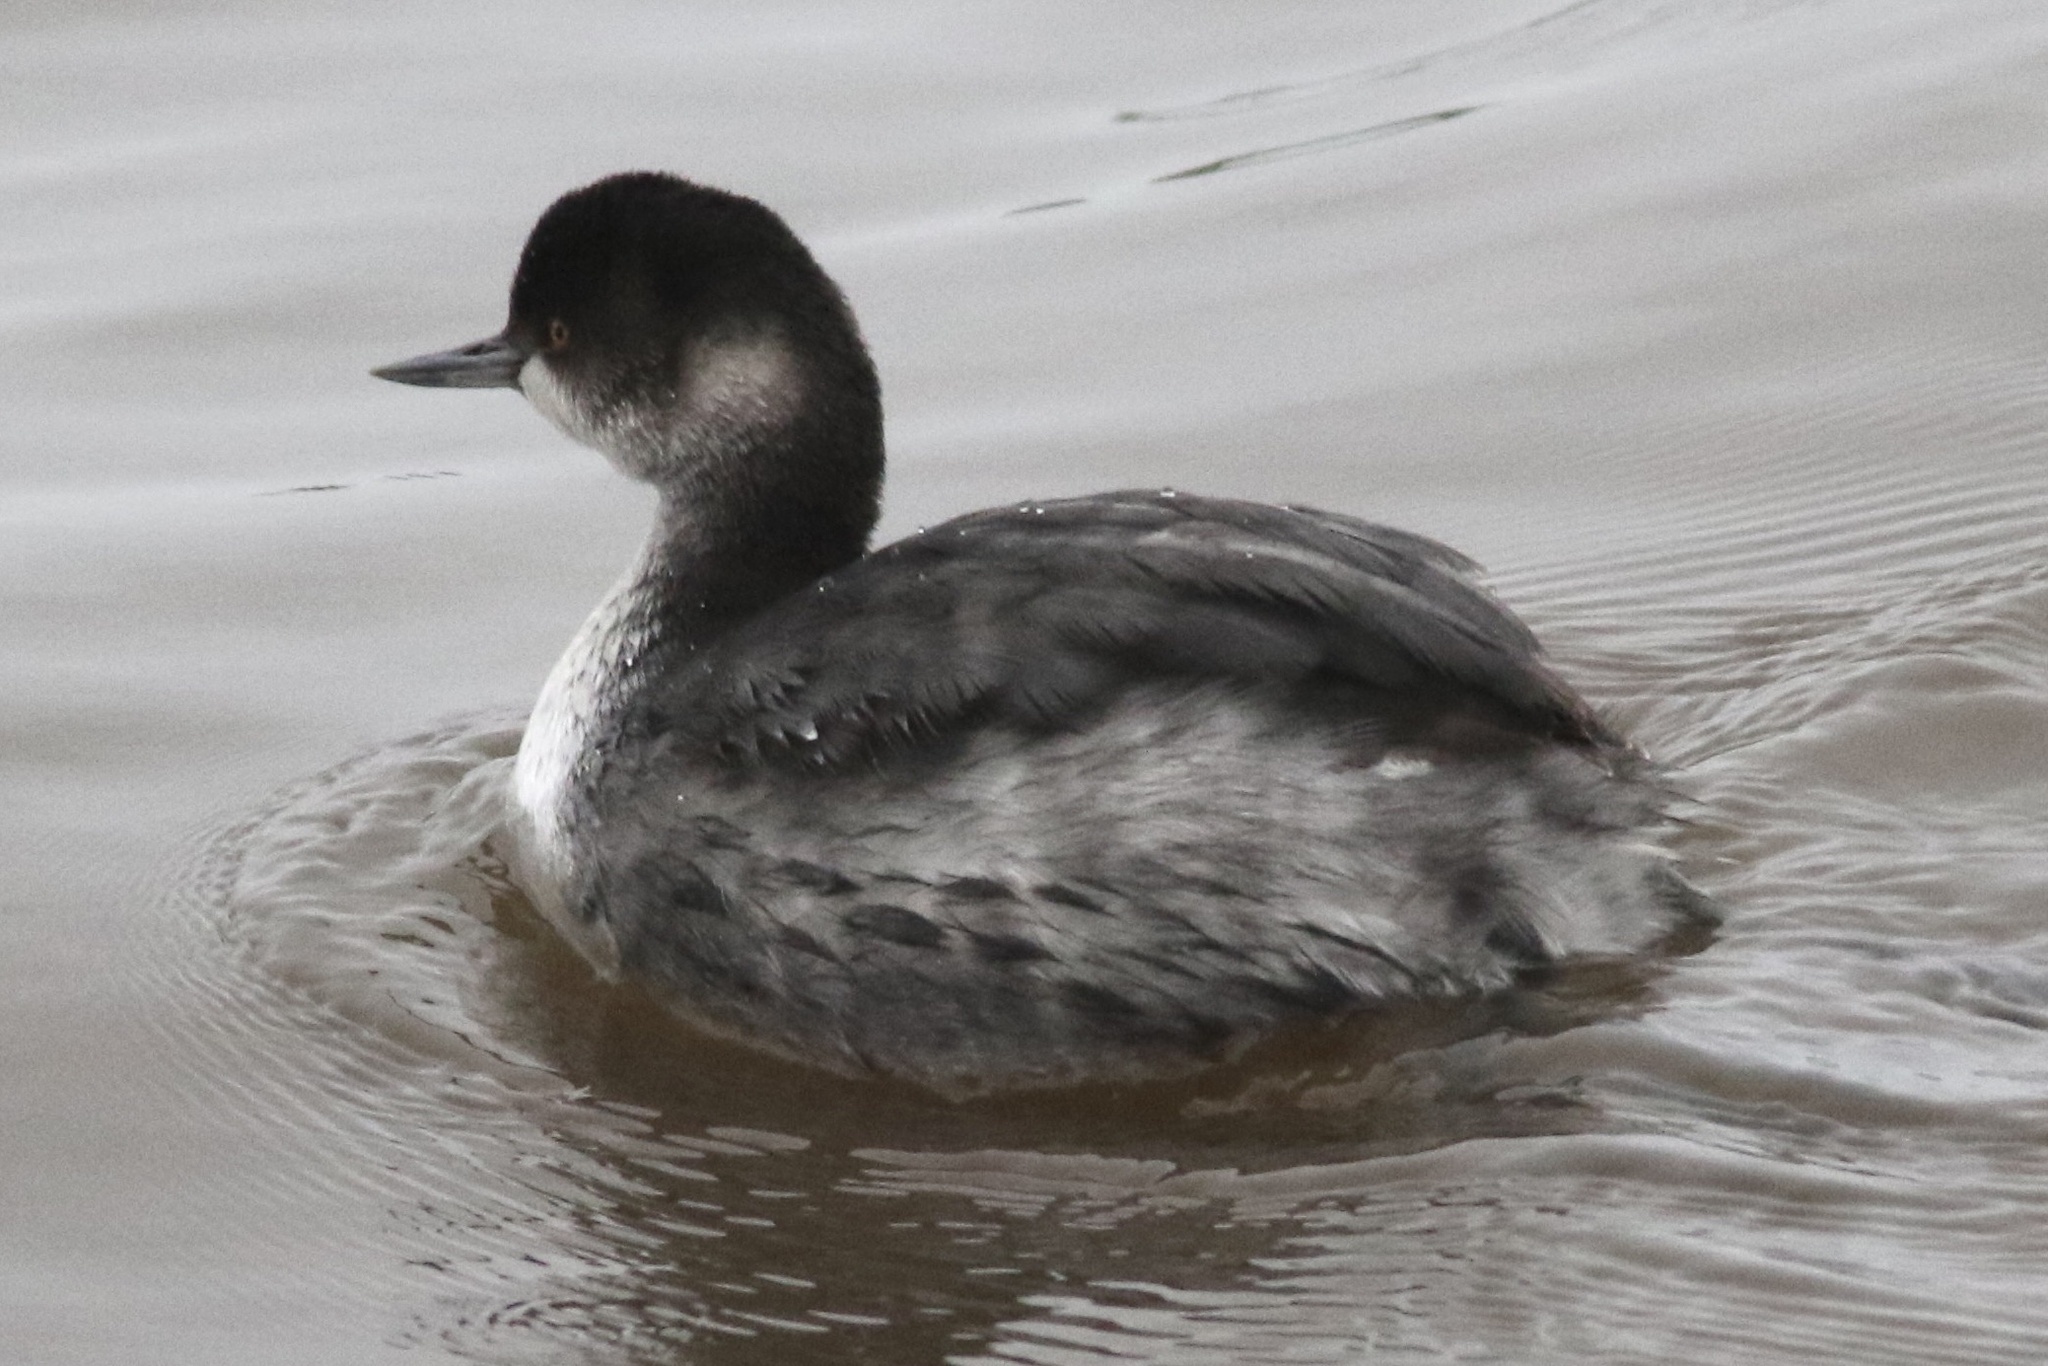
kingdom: Animalia
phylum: Chordata
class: Aves
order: Podicipediformes
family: Podicipedidae
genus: Podiceps
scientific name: Podiceps nigricollis
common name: Black-necked grebe
